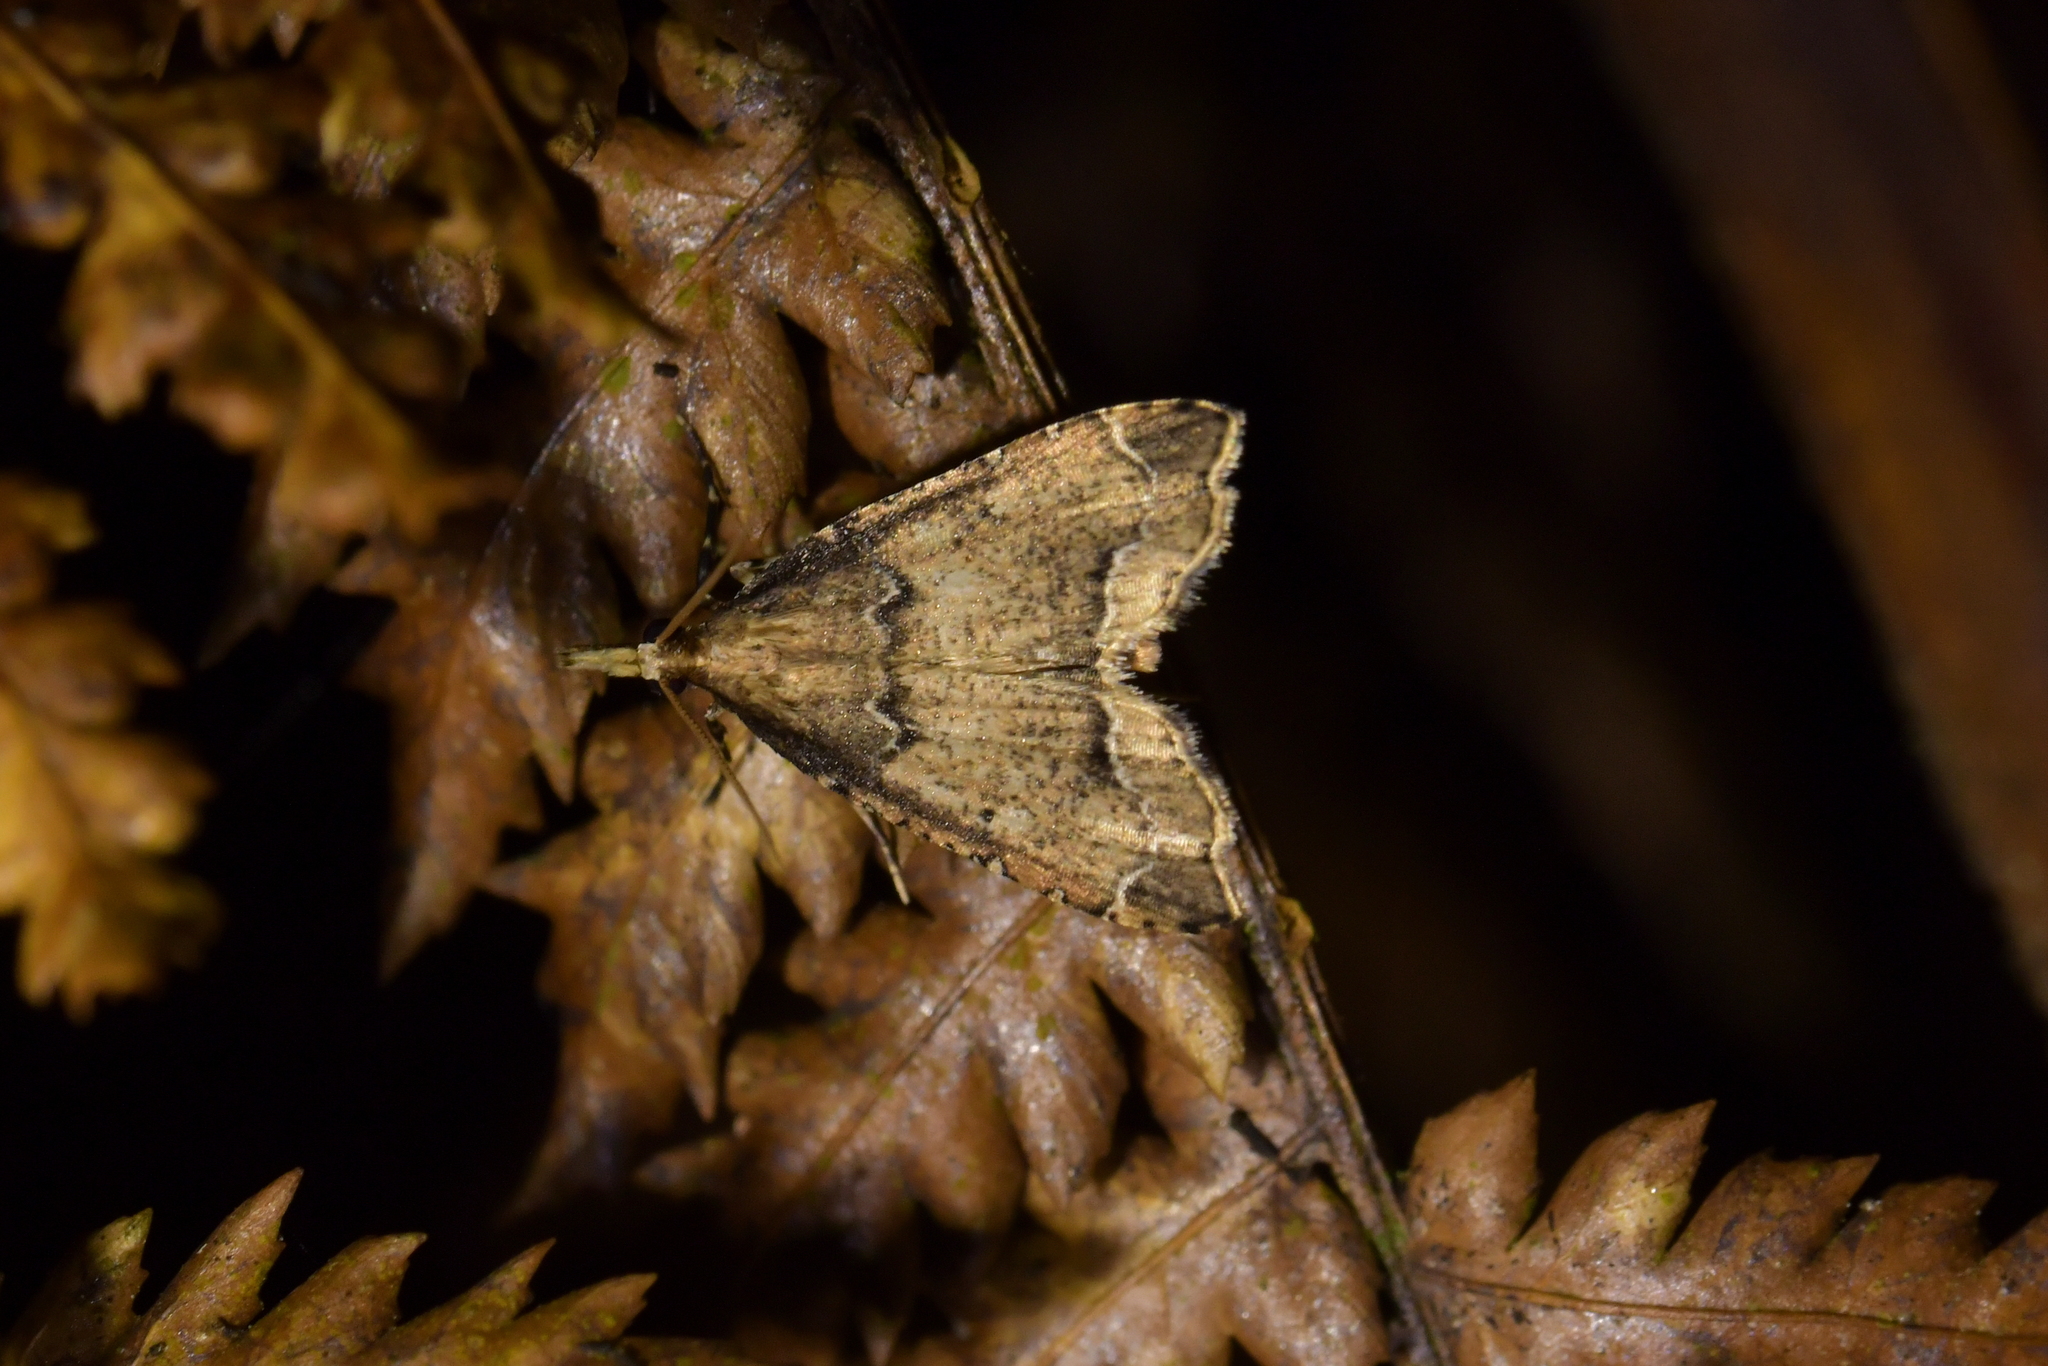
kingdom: Animalia
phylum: Arthropoda
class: Insecta
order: Lepidoptera
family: Crambidae
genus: Diplopseustis
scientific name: Diplopseustis perieresalis
